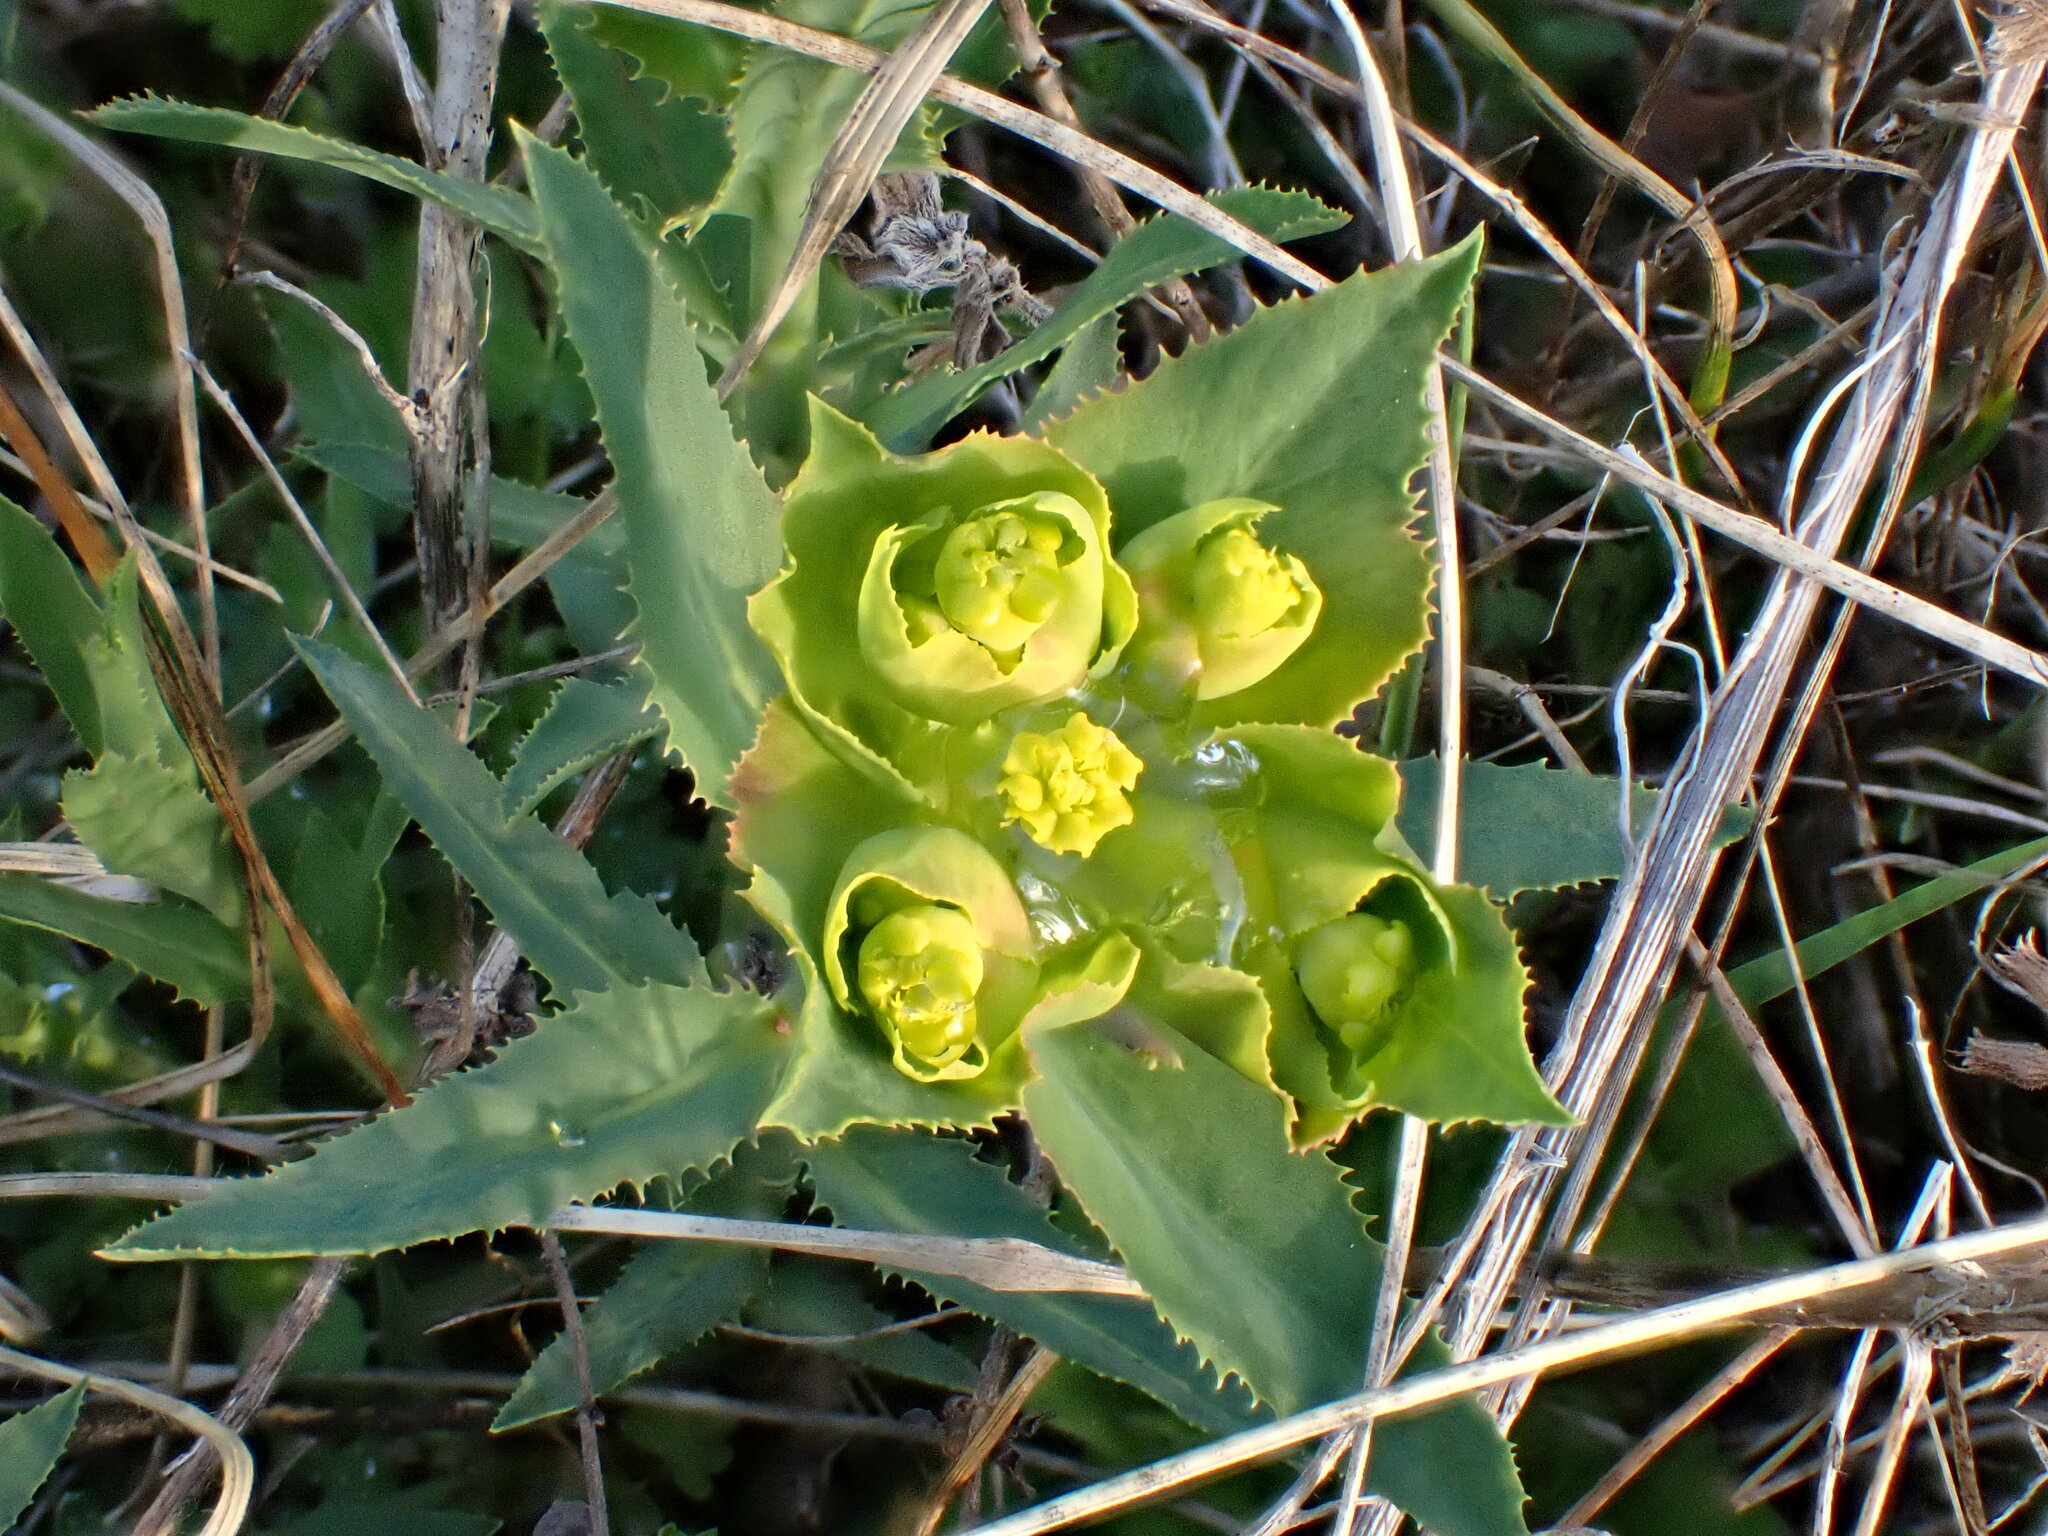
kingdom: Plantae
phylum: Tracheophyta
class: Magnoliopsida
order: Malpighiales
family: Euphorbiaceae
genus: Euphorbia
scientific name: Euphorbia serrata
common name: Serrate spurge
